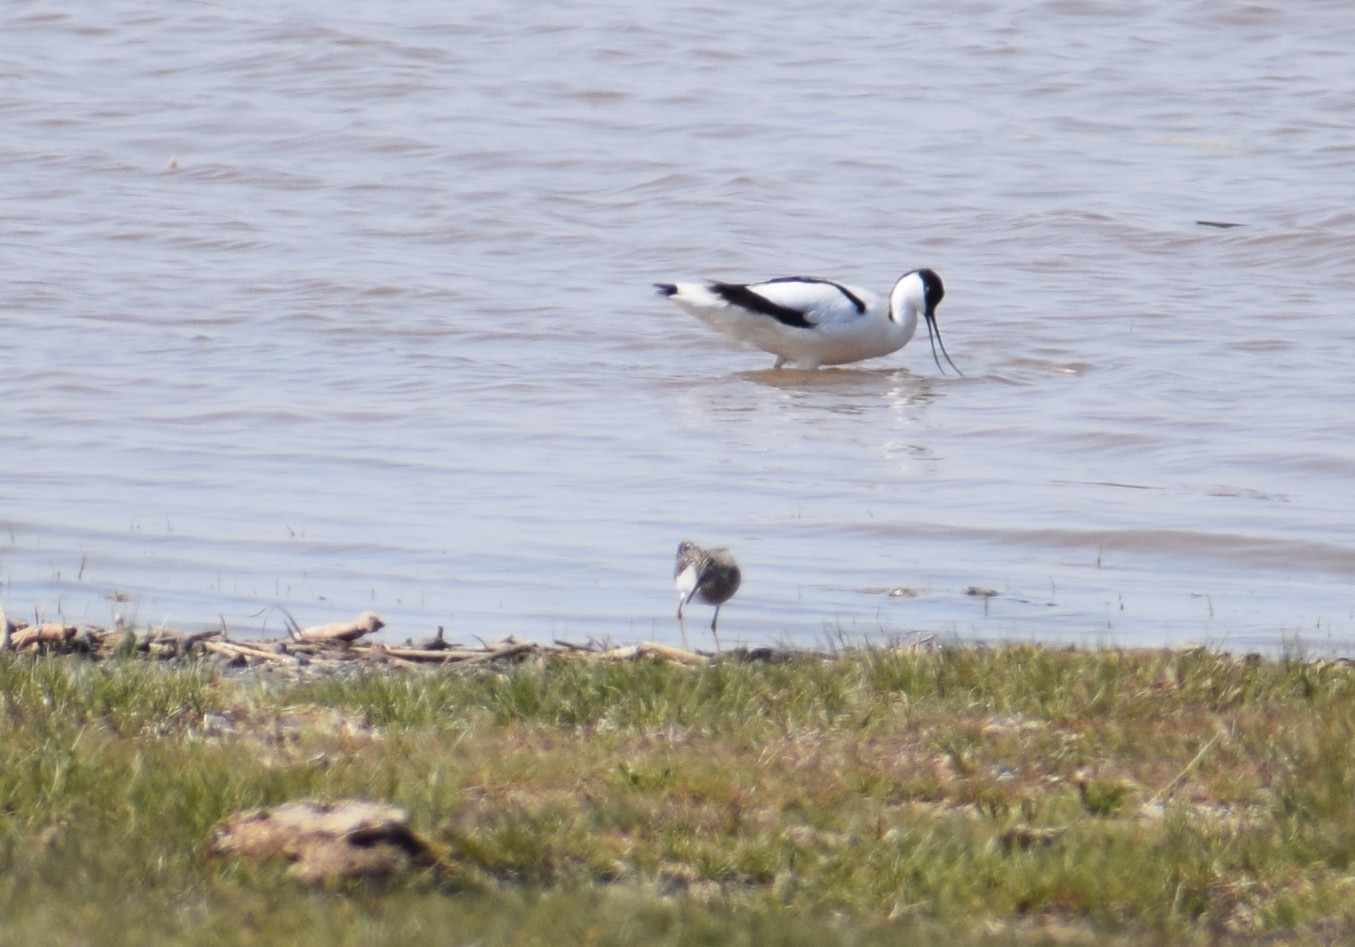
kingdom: Animalia
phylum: Chordata
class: Aves
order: Charadriiformes
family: Recurvirostridae
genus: Recurvirostra
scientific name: Recurvirostra avosetta
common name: Pied avocet
